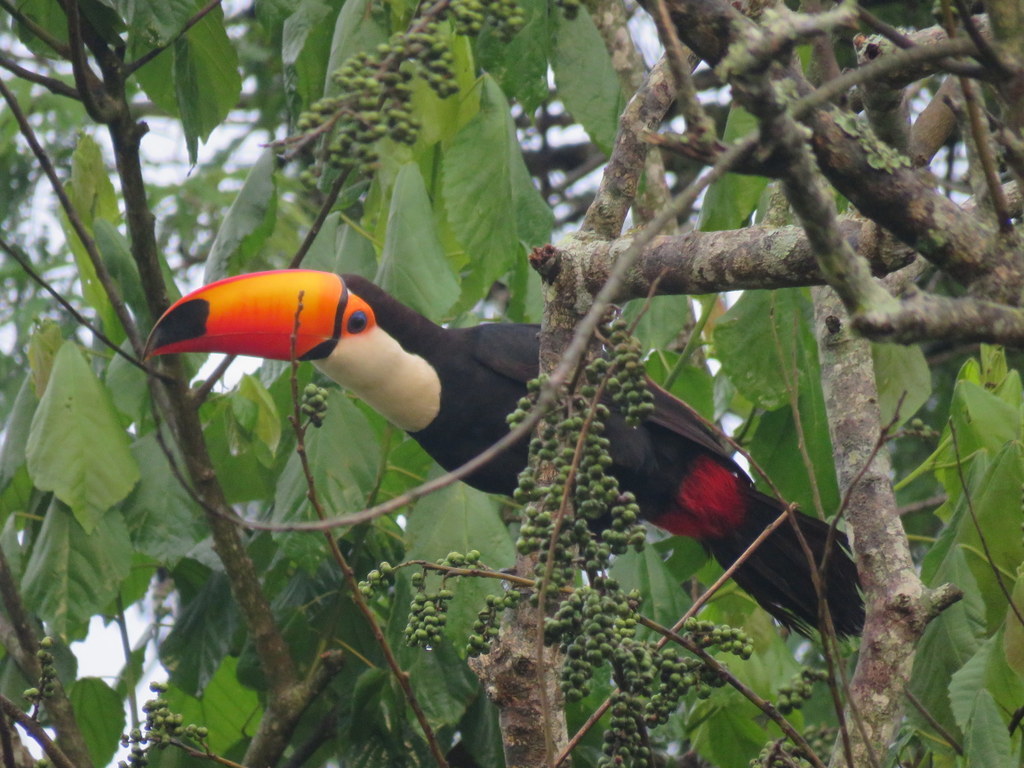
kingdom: Animalia
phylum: Chordata
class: Aves
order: Piciformes
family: Ramphastidae
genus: Ramphastos
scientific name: Ramphastos toco
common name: Toco toucan
